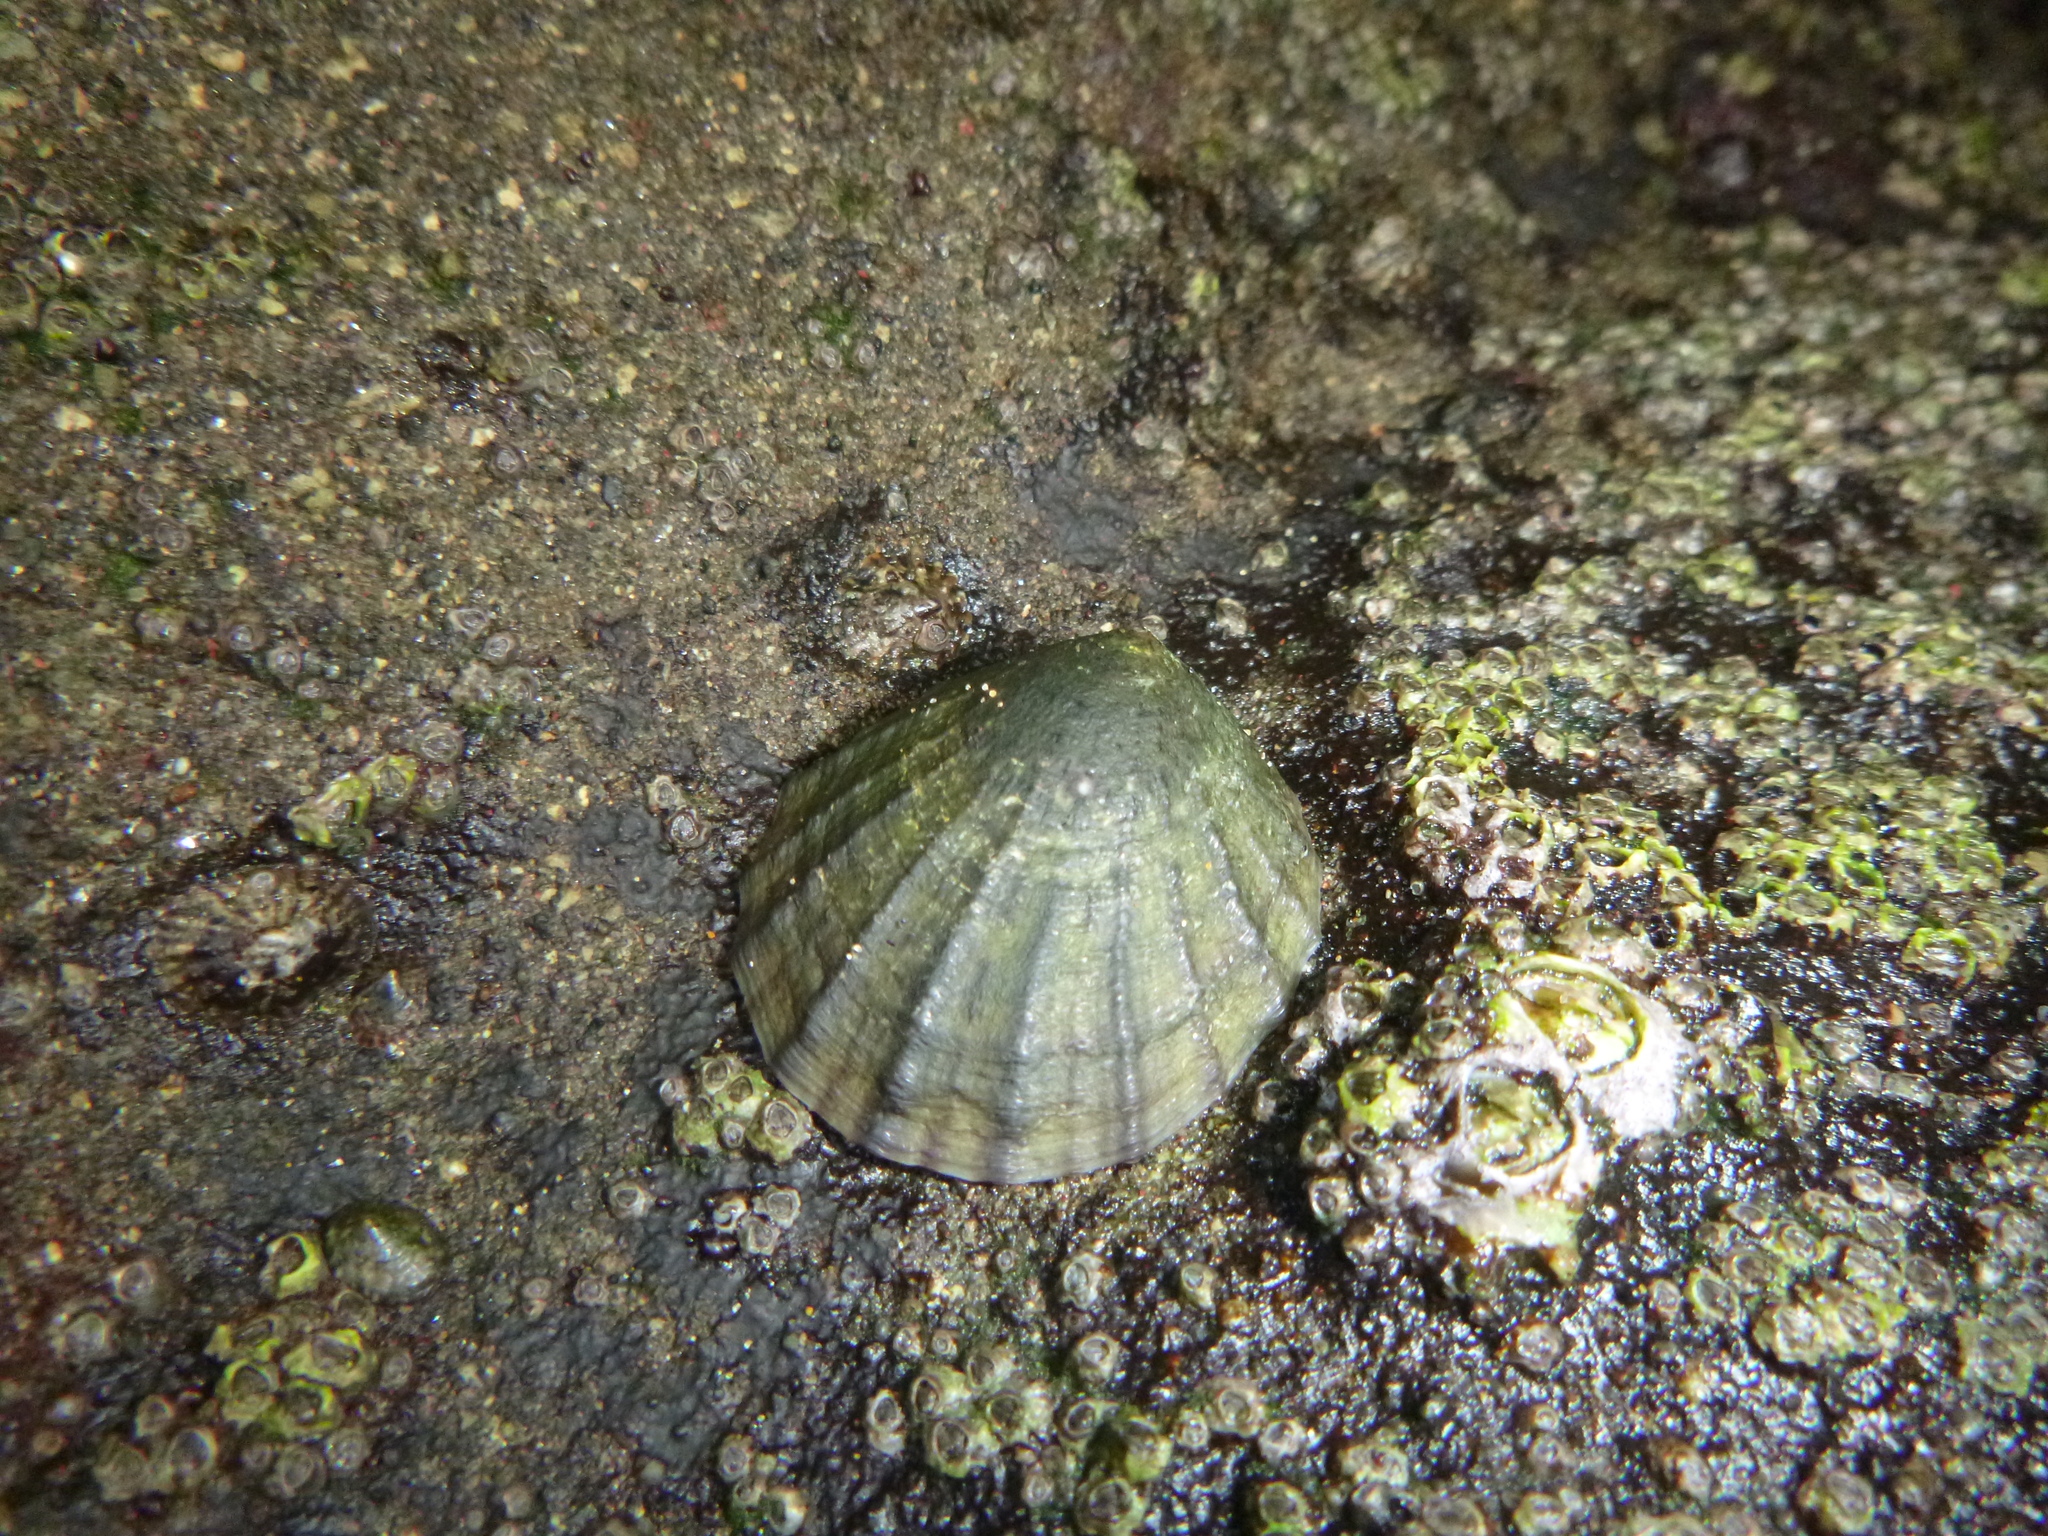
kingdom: Animalia
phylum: Mollusca
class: Gastropoda
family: Nacellidae
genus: Cellana
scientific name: Cellana radians
